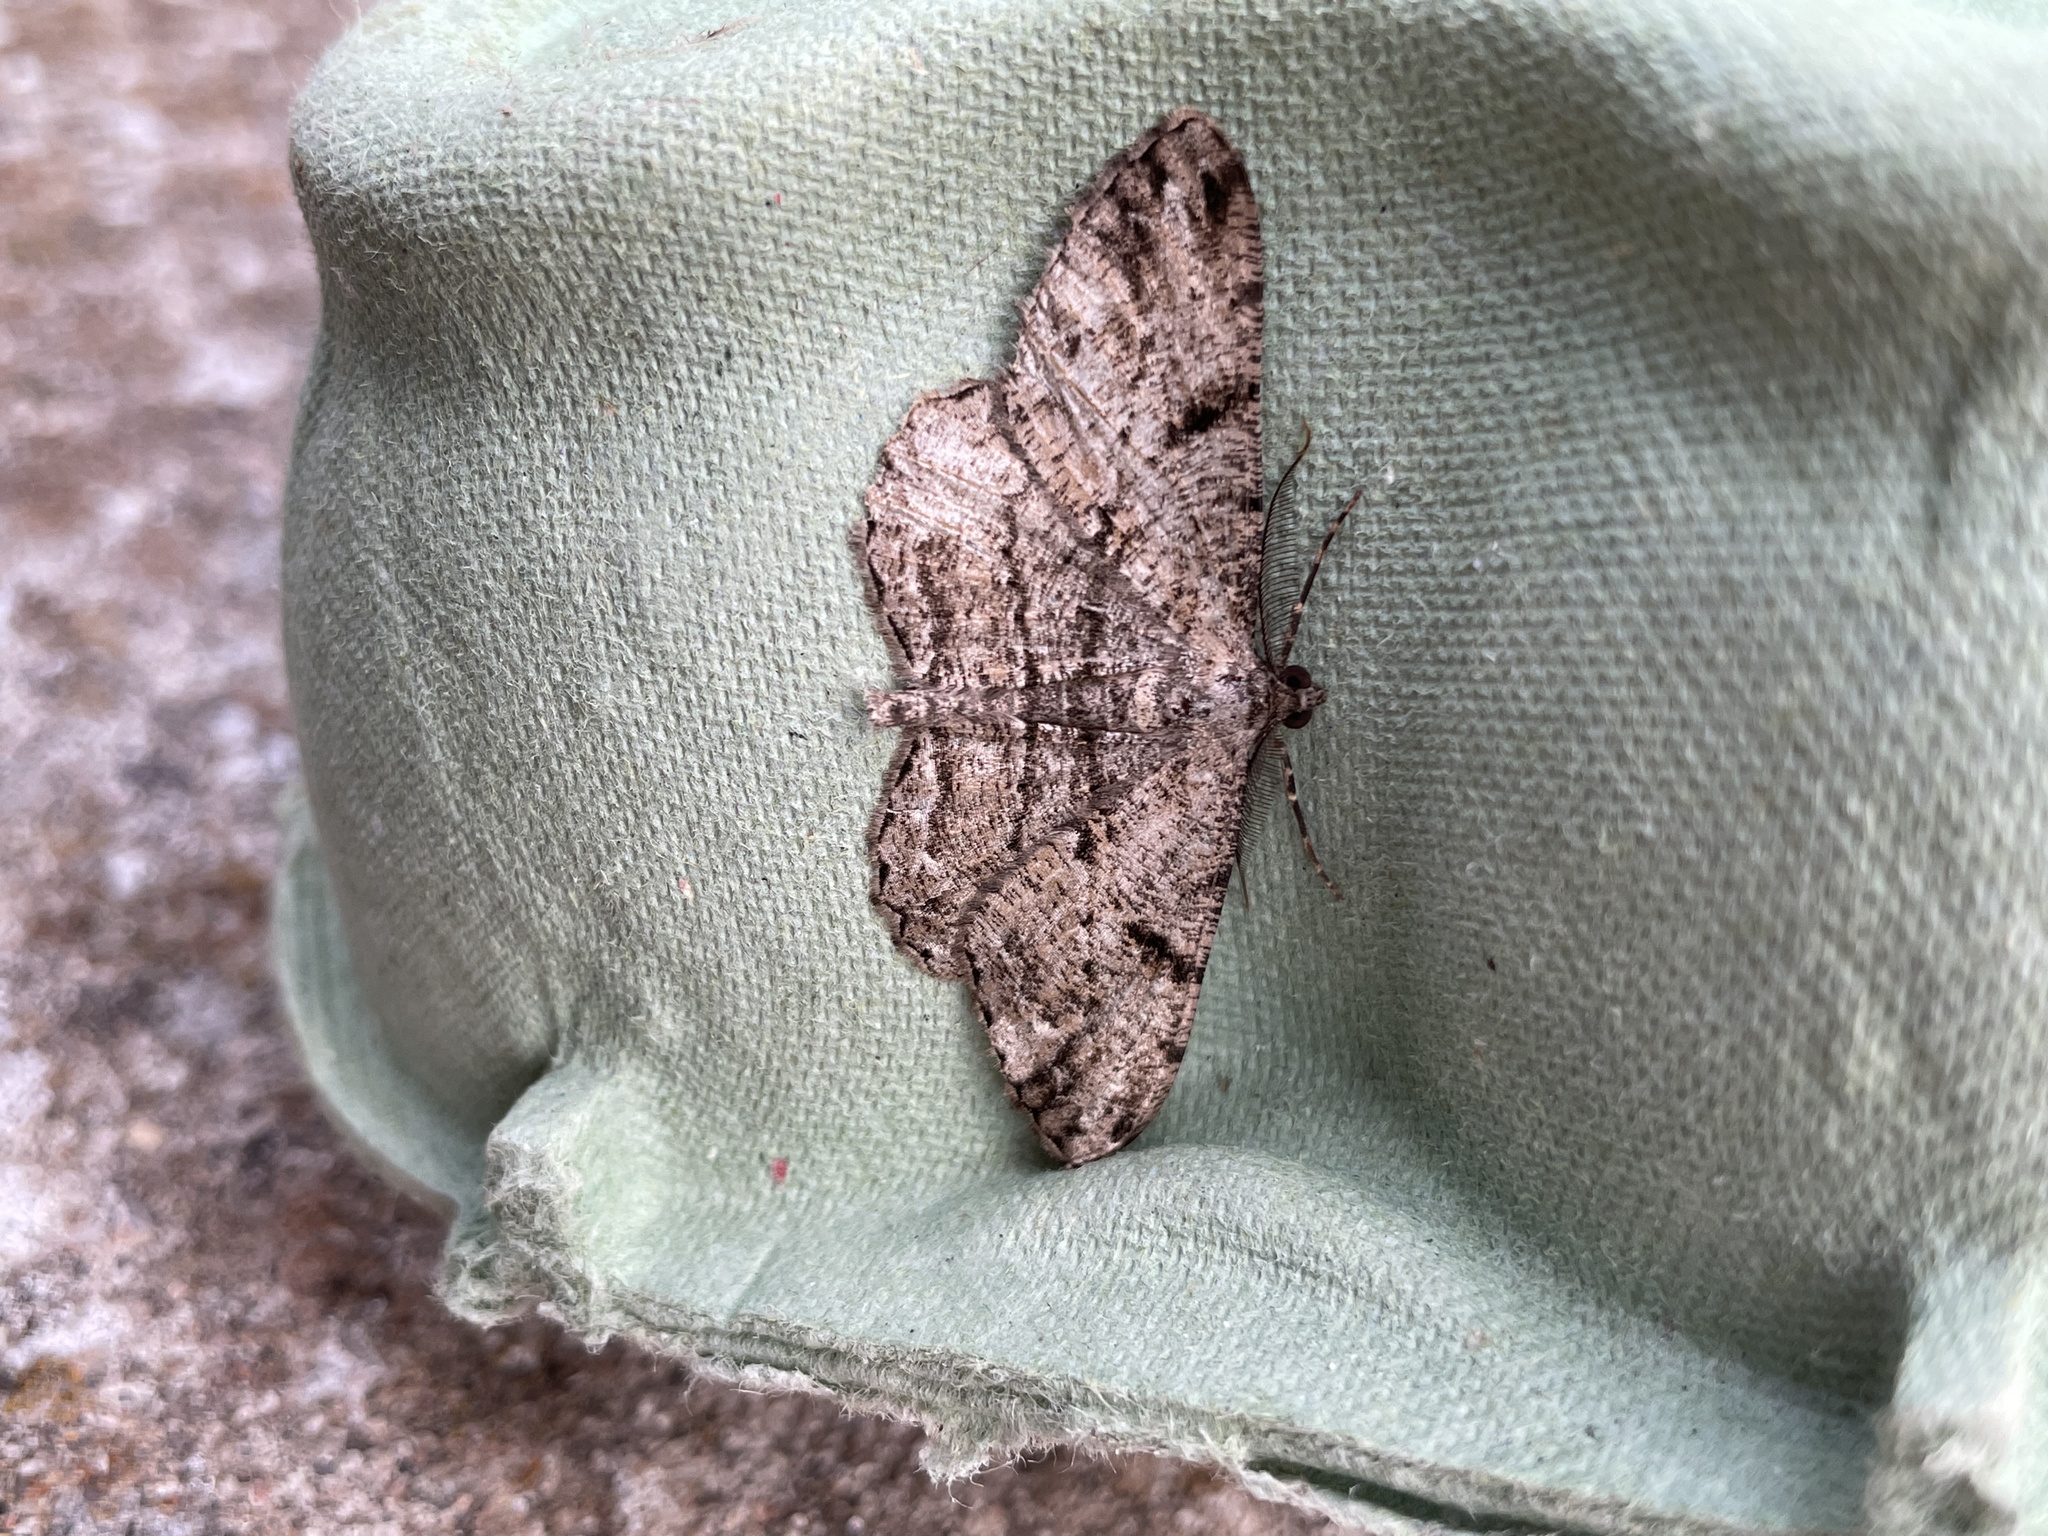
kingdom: Animalia
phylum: Arthropoda
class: Insecta
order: Lepidoptera
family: Geometridae
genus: Peribatodes
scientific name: Peribatodes rhomboidaria
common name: Willow beauty
